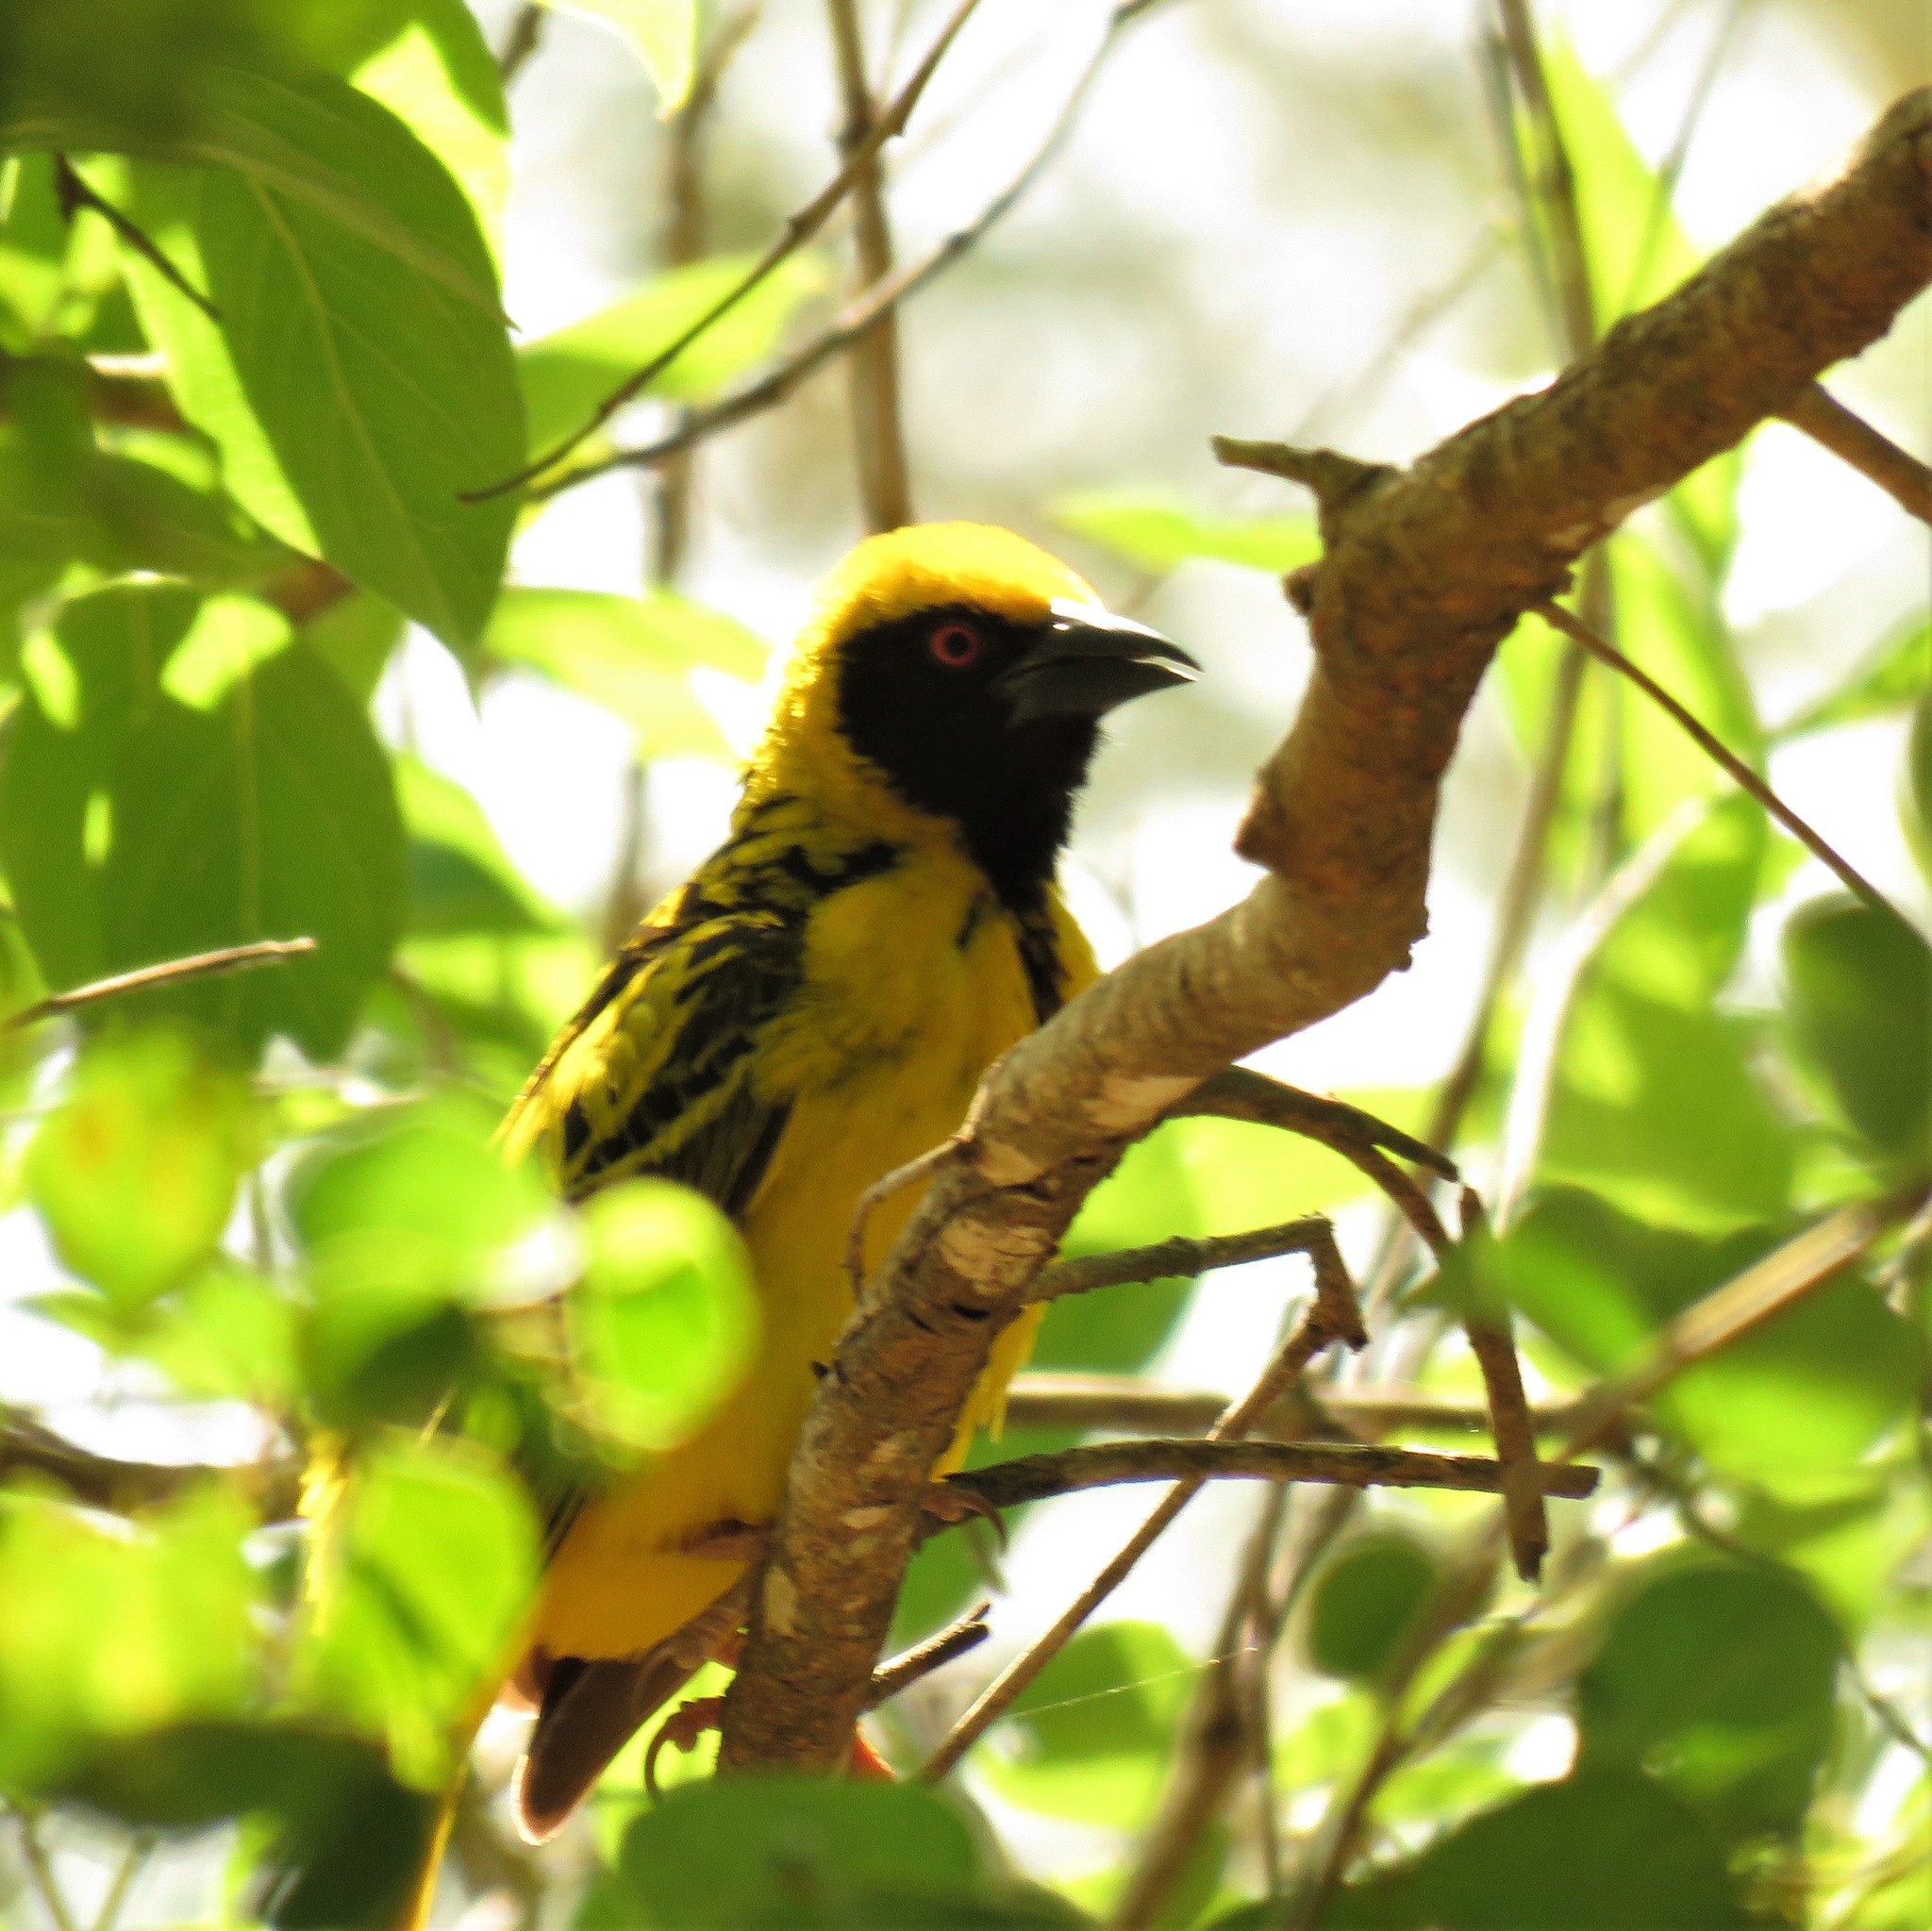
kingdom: Animalia
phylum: Chordata
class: Aves
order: Passeriformes
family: Ploceidae
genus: Ploceus
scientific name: Ploceus cucullatus
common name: Village weaver
